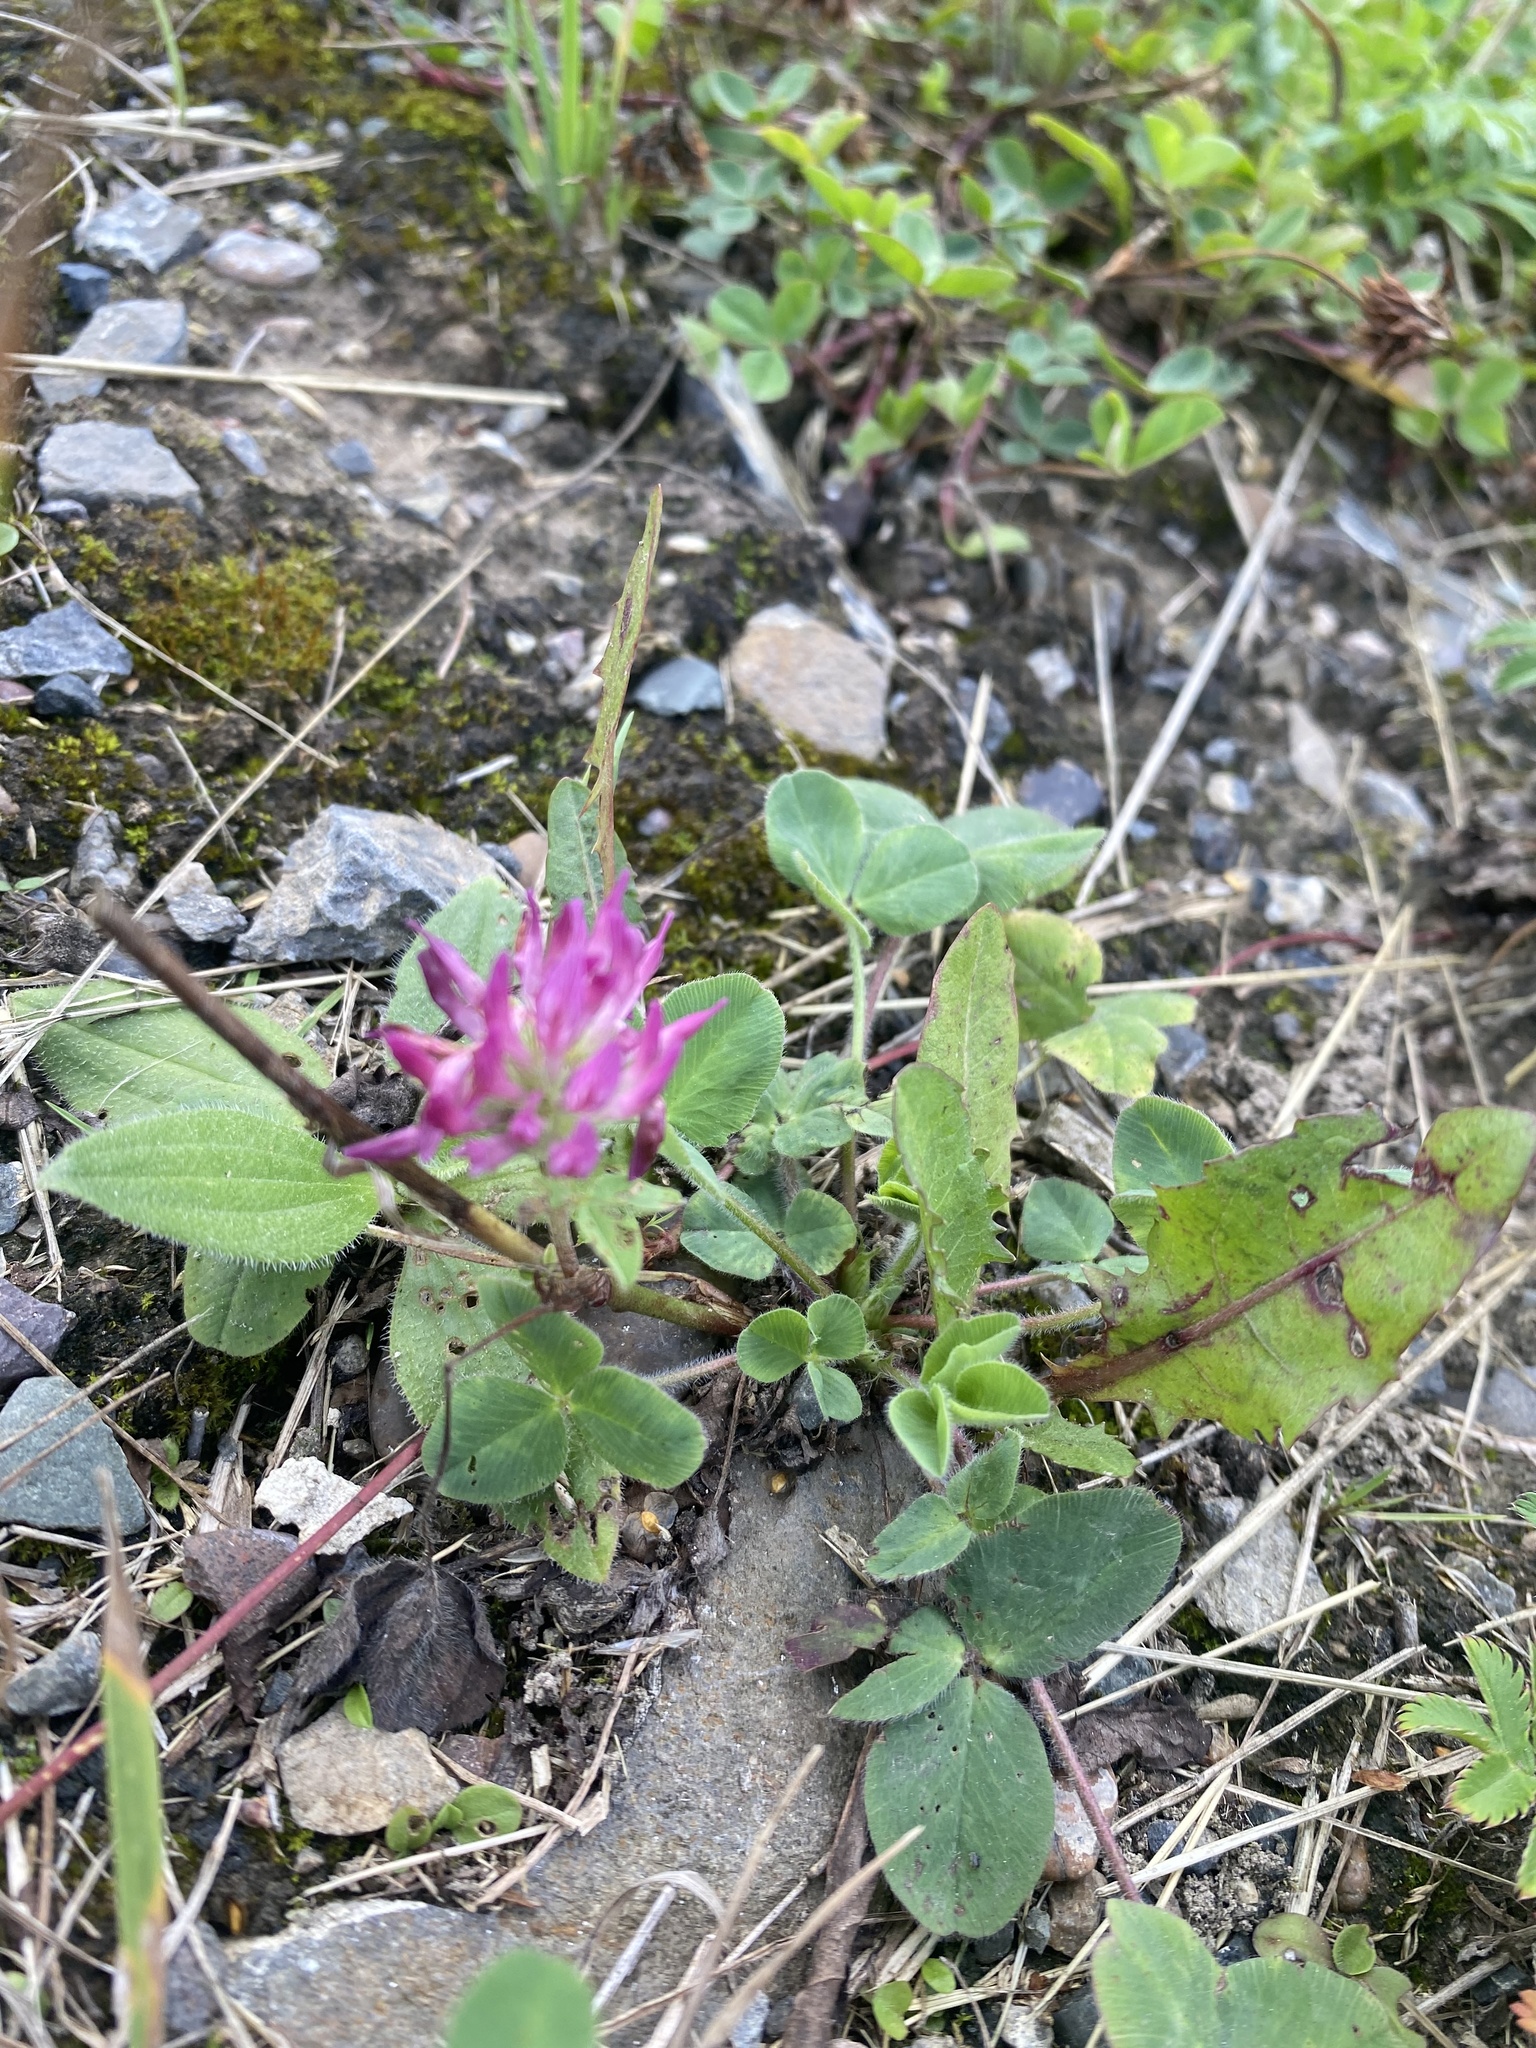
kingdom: Plantae
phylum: Tracheophyta
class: Magnoliopsida
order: Fabales
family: Fabaceae
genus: Trifolium
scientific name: Trifolium pratense
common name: Red clover
